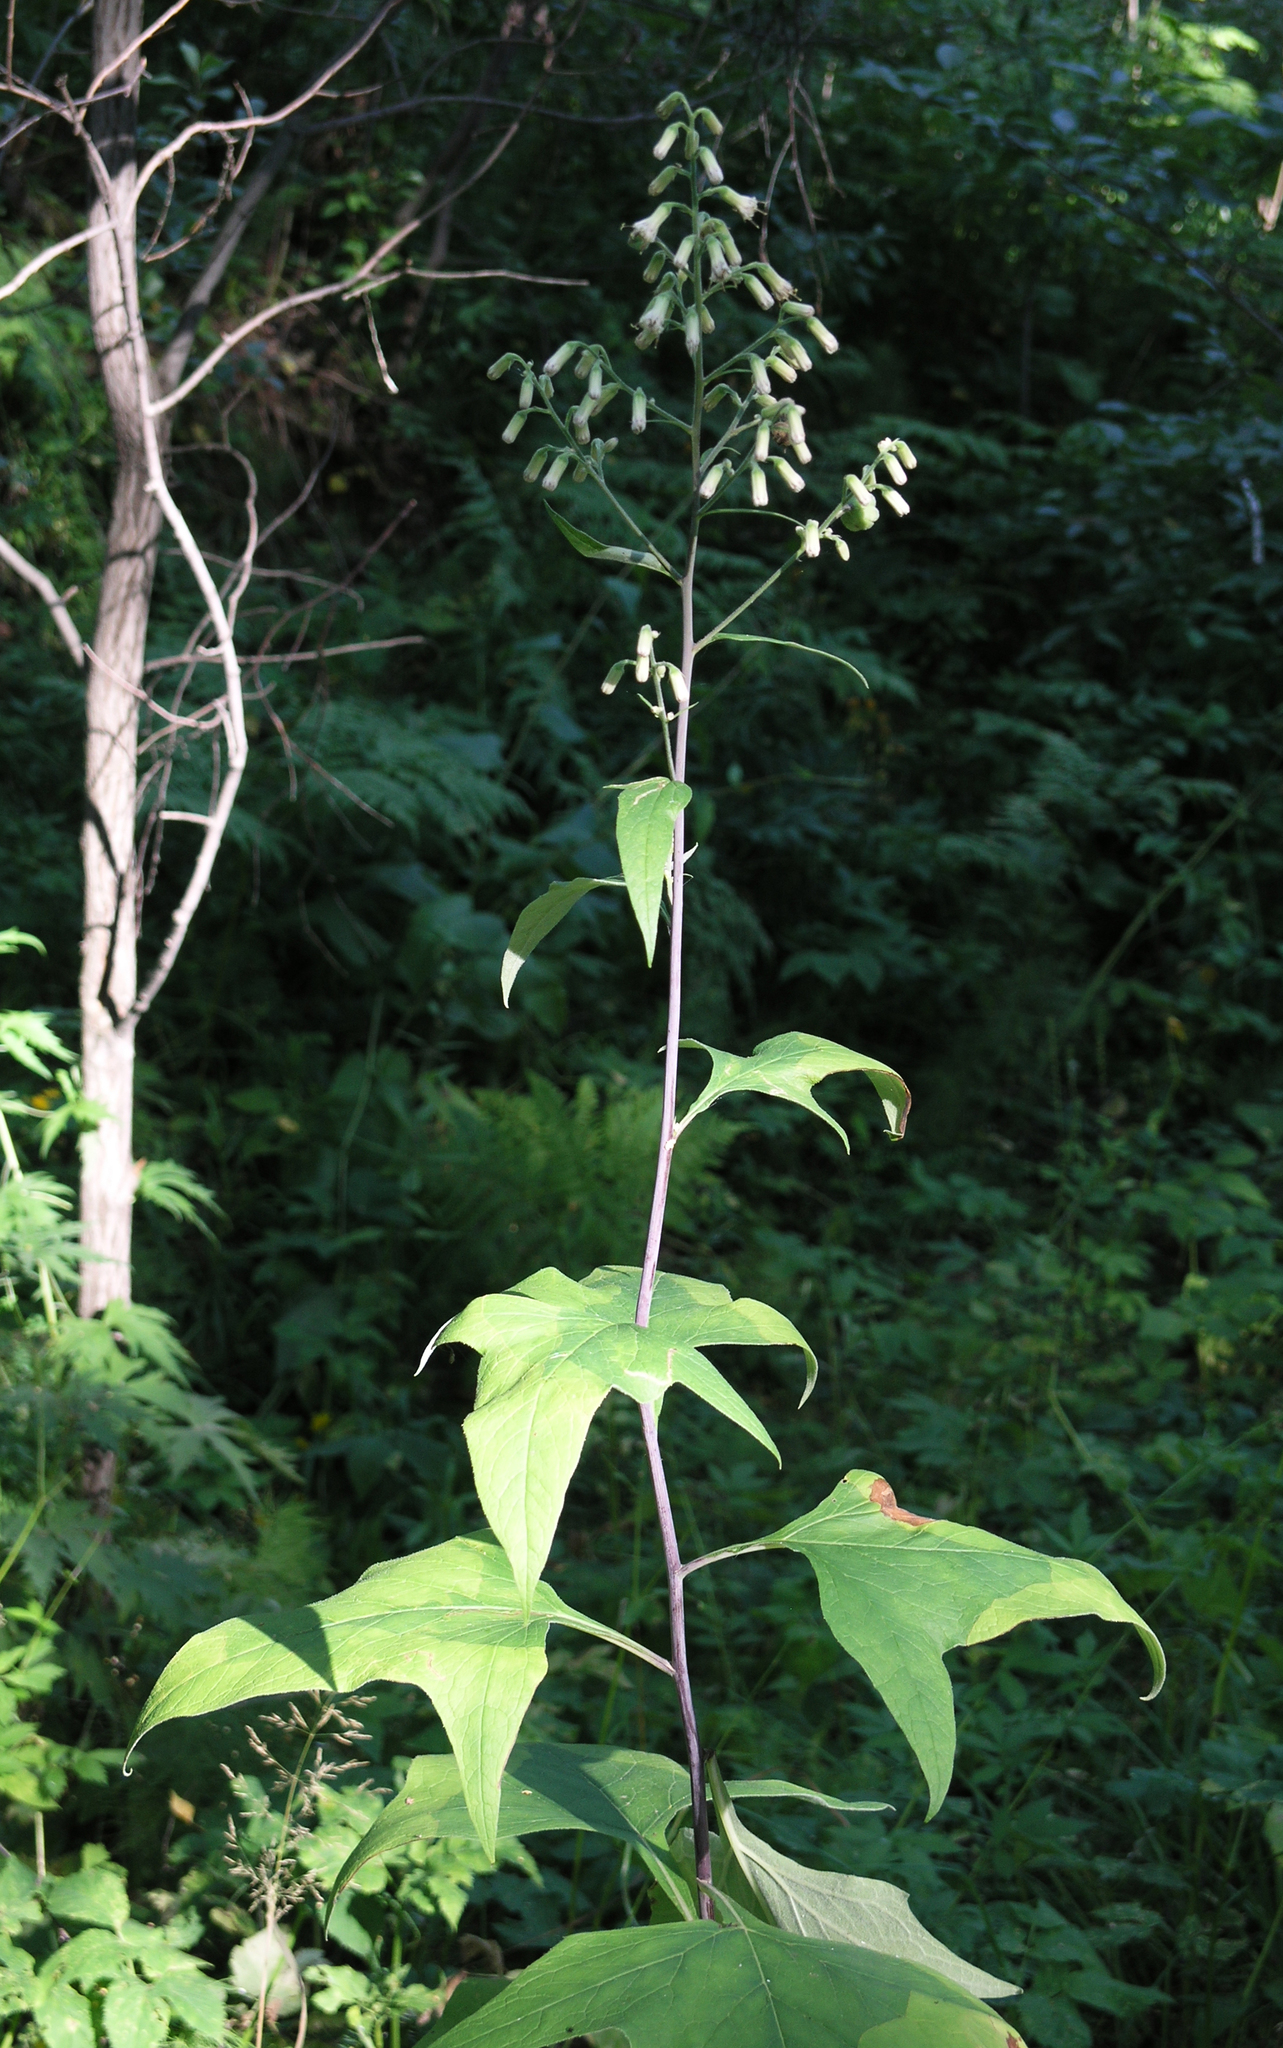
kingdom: Plantae
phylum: Tracheophyta
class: Magnoliopsida
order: Asterales
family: Asteraceae
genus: Parasenecio
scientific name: Parasenecio hastatus
